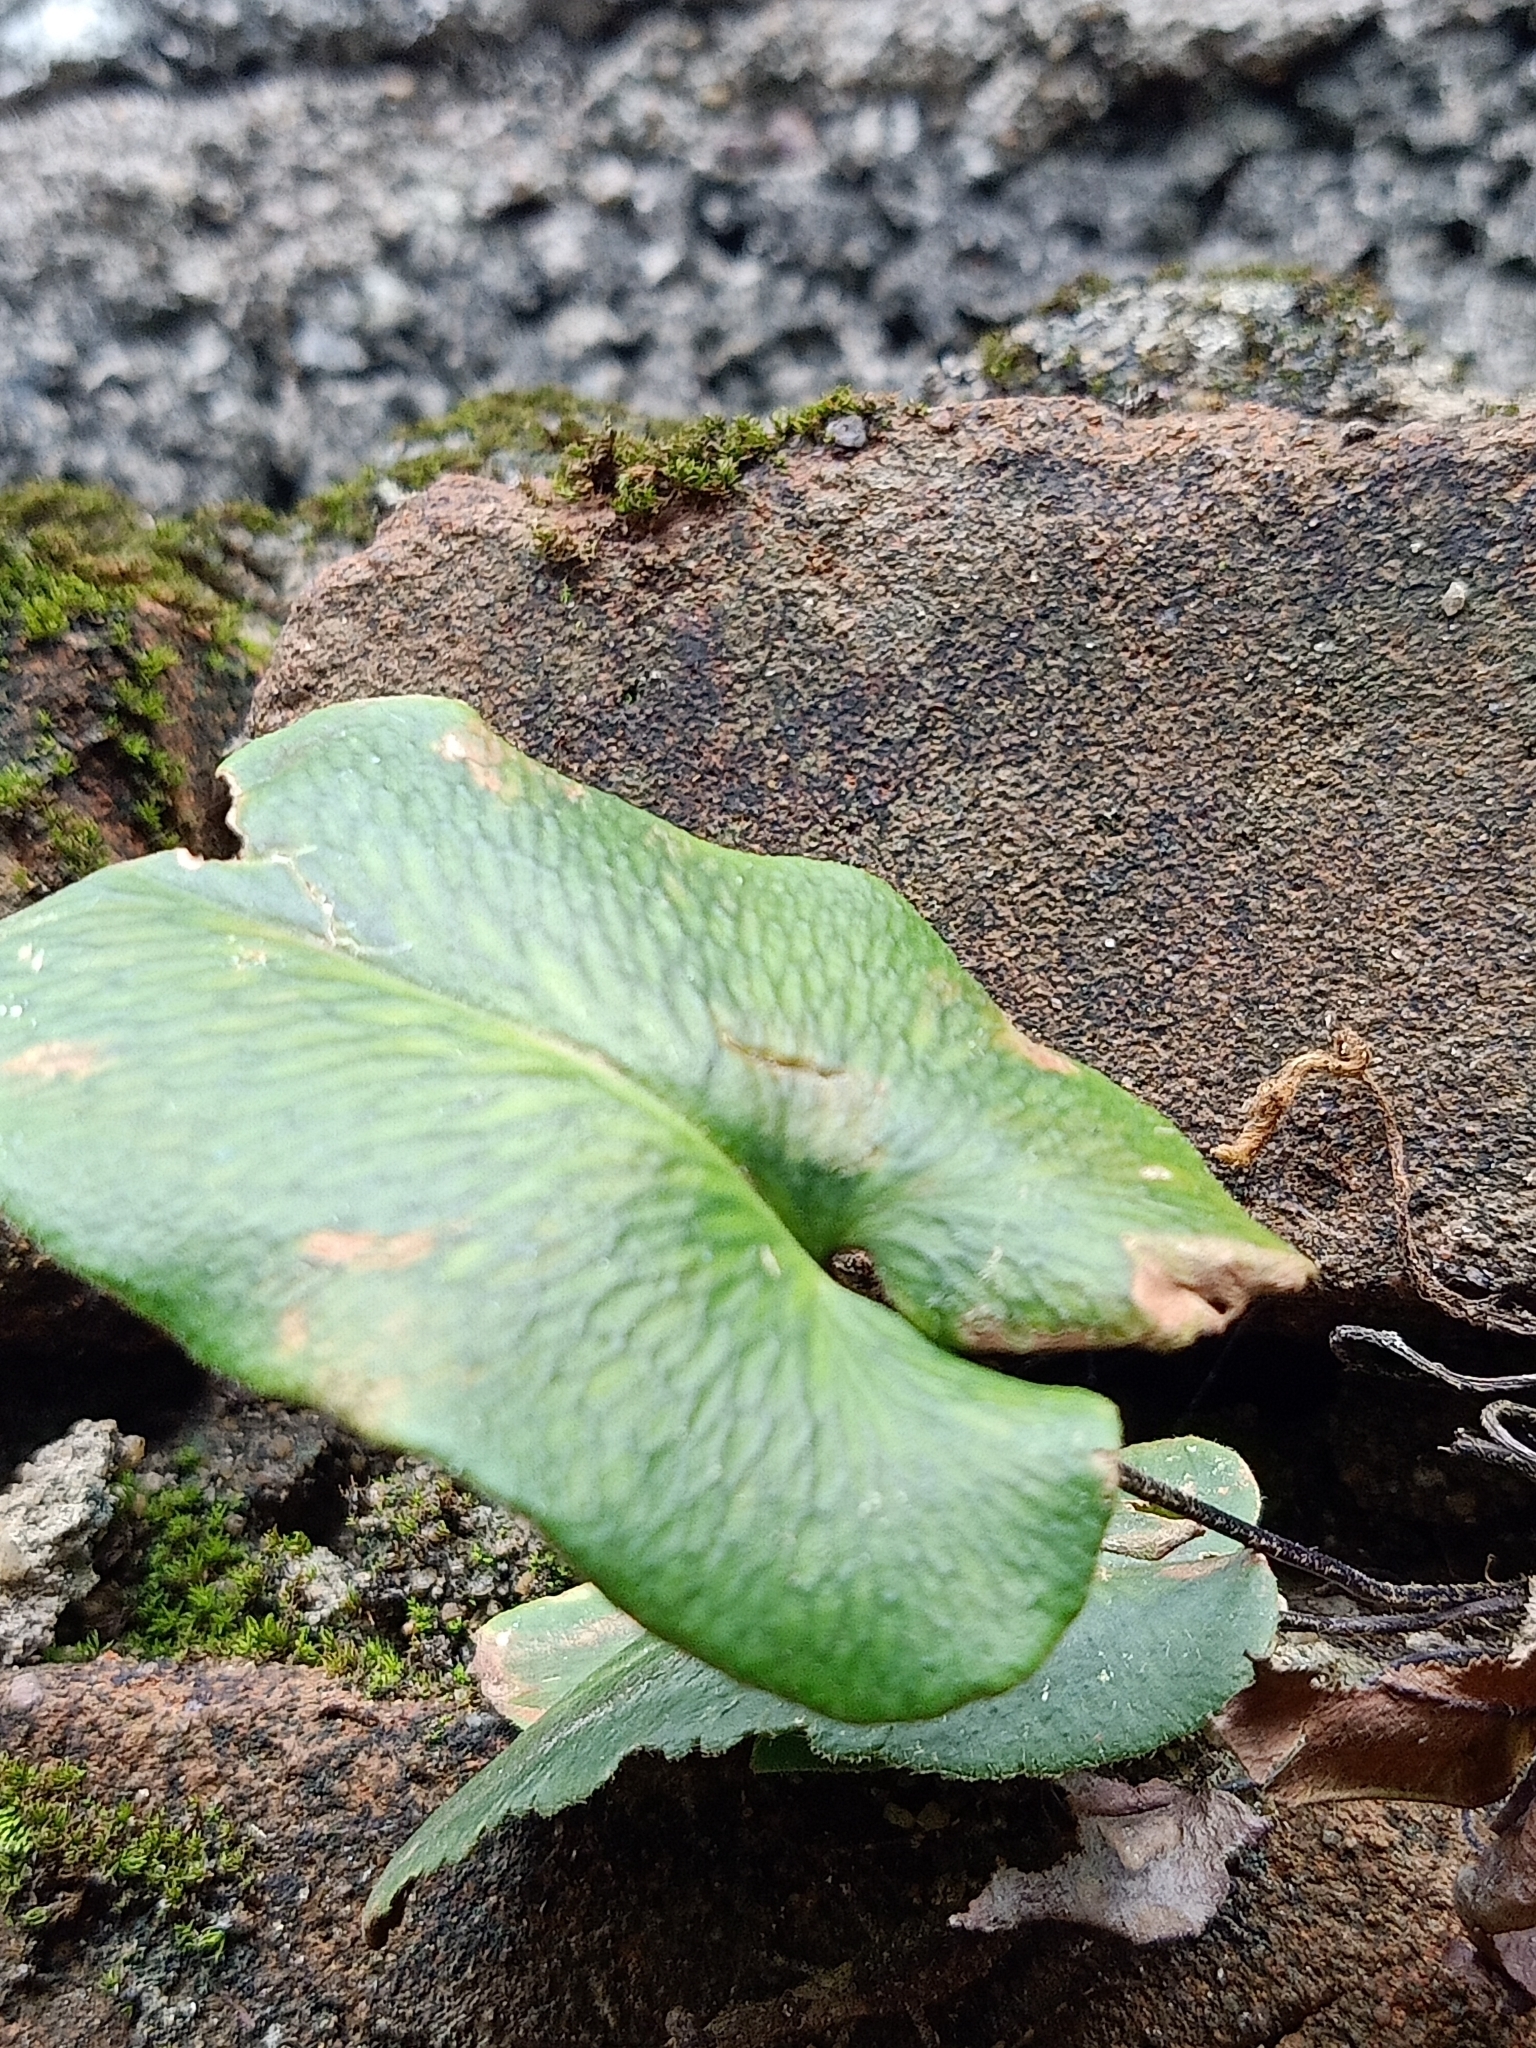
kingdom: Plantae
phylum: Tracheophyta
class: Polypodiopsida
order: Polypodiales
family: Pteridaceae
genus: Mickelopteris
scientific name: Mickelopteris cordata
